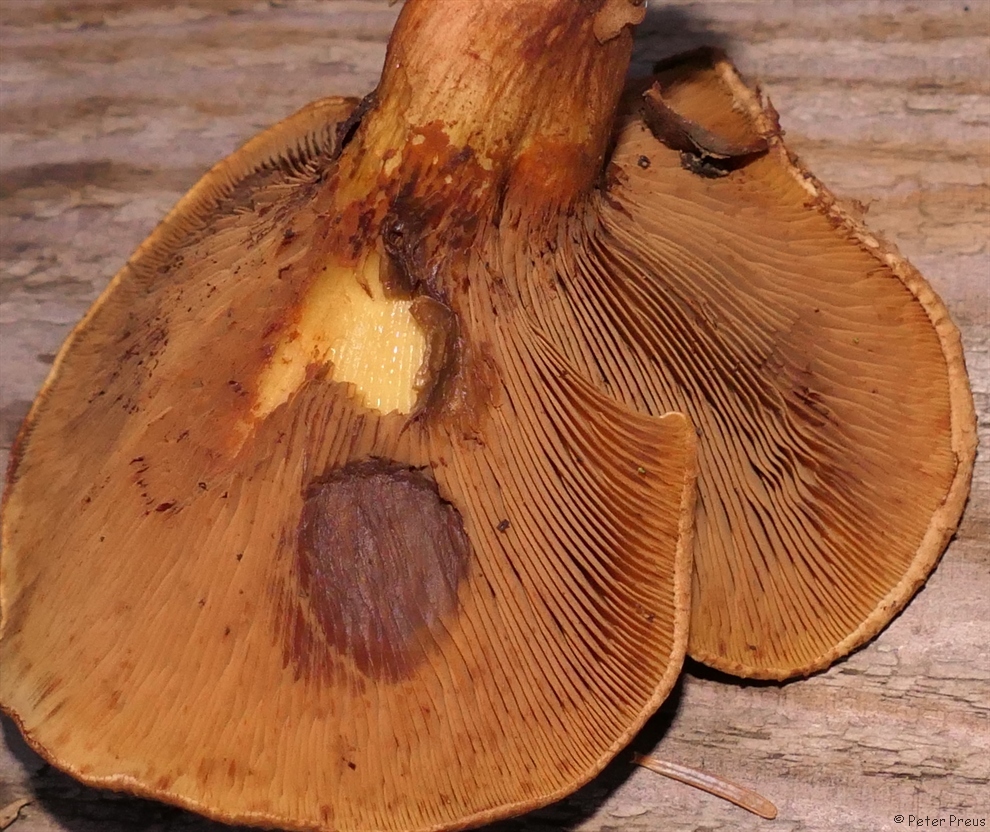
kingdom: Fungi
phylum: Basidiomycota
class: Agaricomycetes
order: Boletales
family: Paxillaceae
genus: Paxillus
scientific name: Paxillus involutus
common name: Brown roll rim
